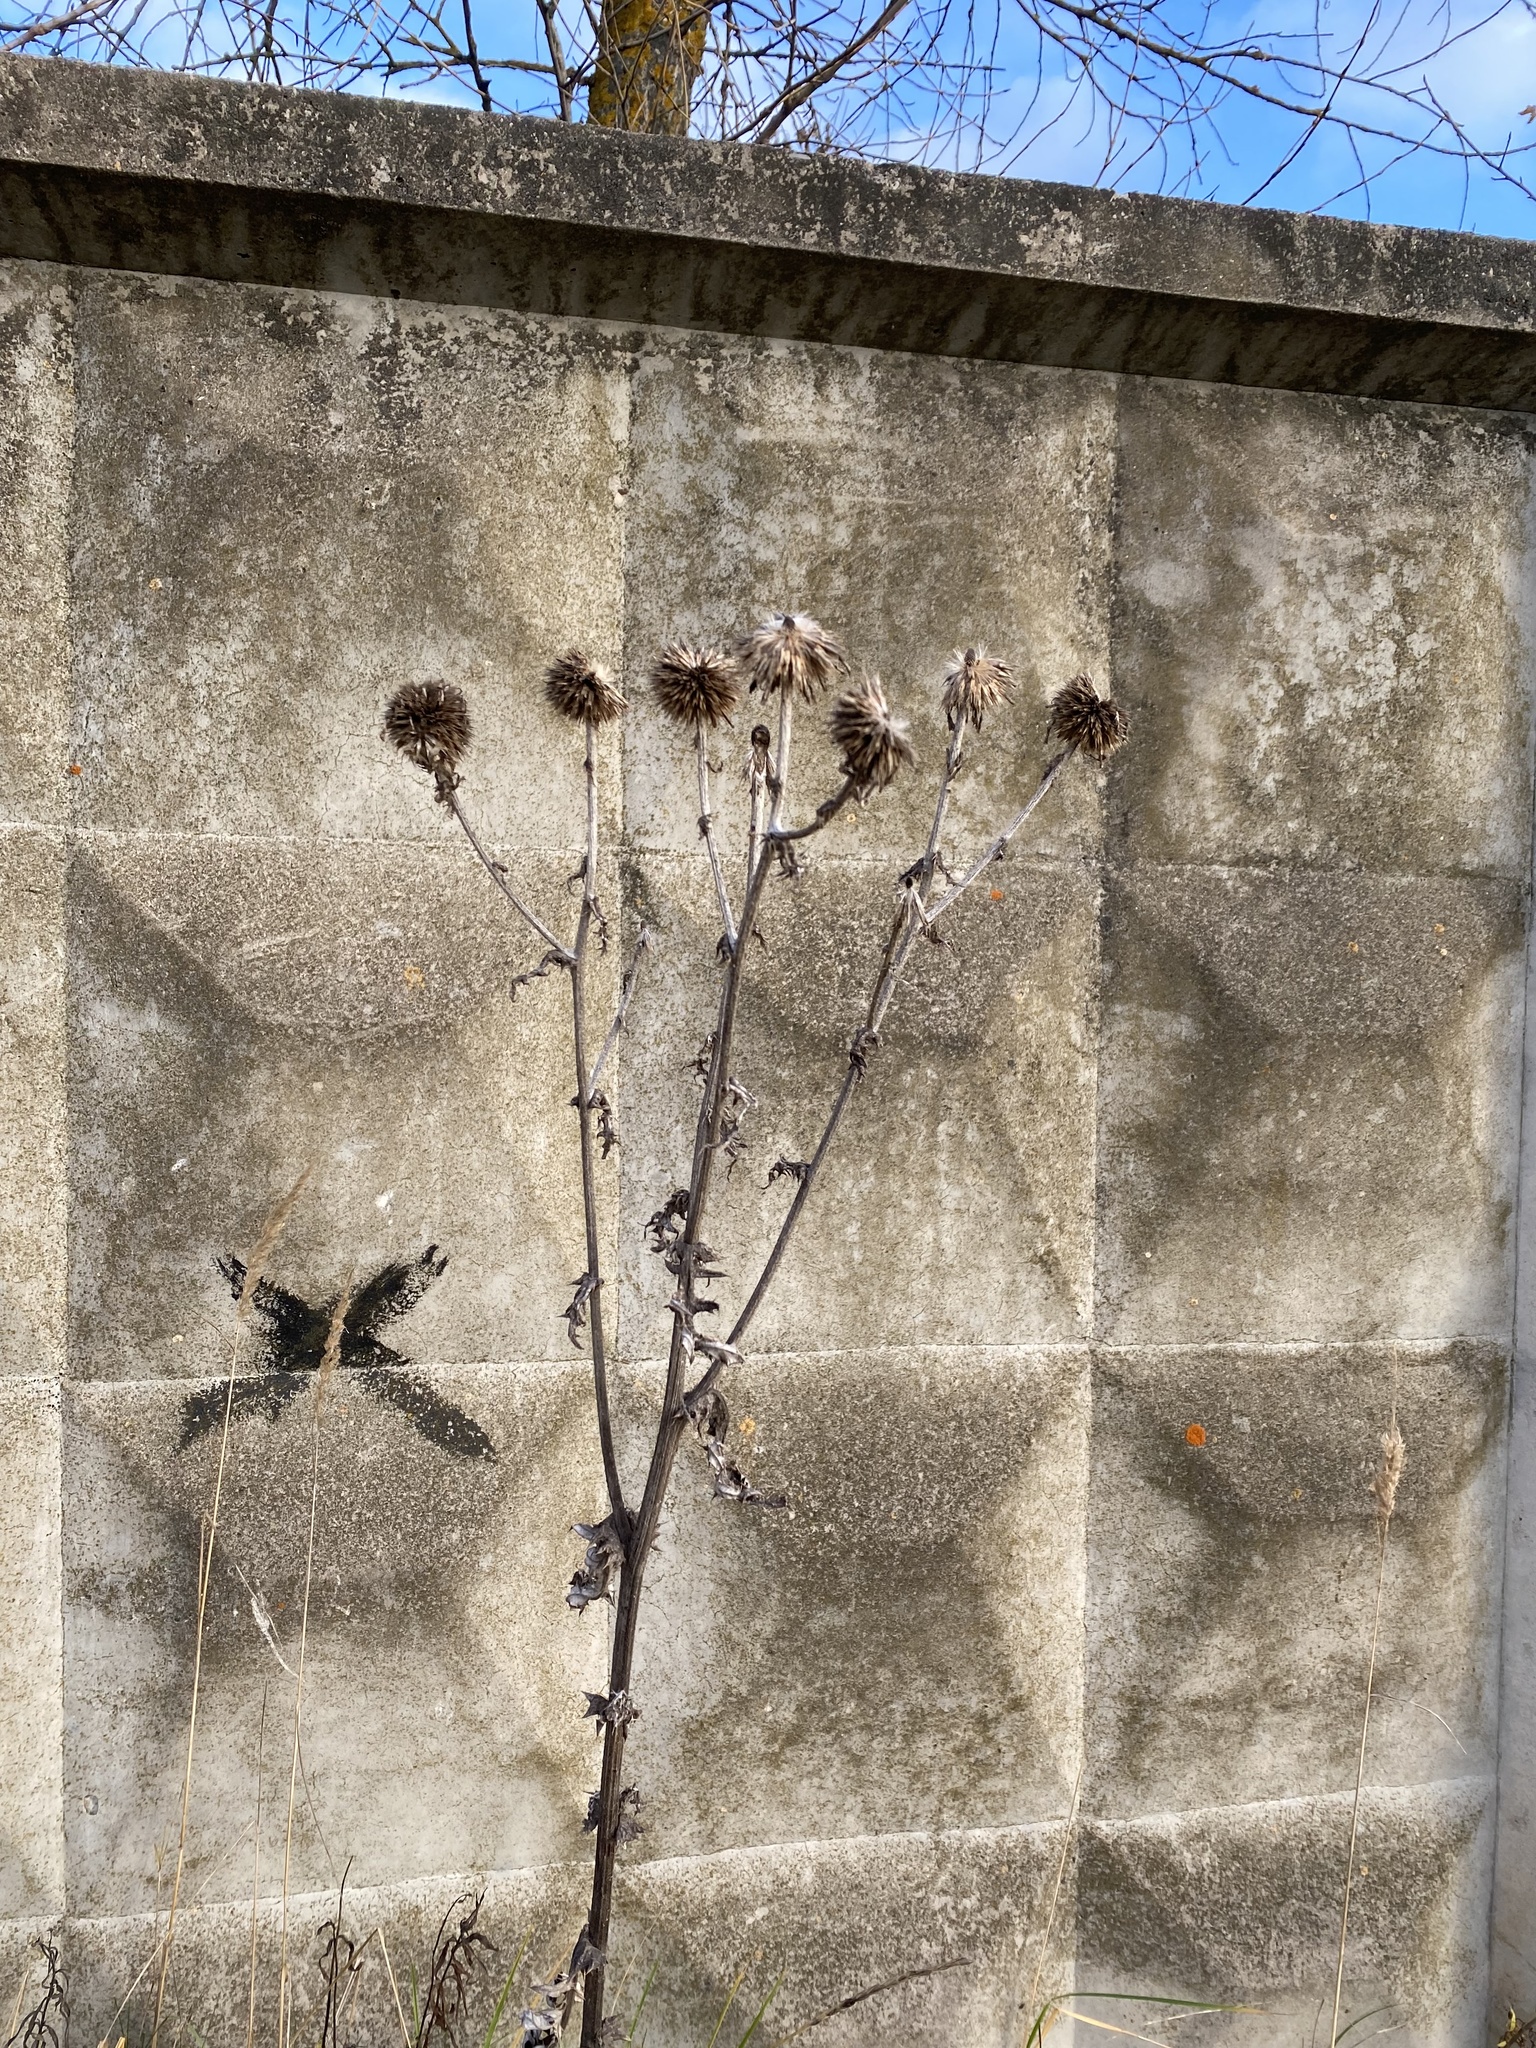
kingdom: Plantae
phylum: Tracheophyta
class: Magnoliopsida
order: Asterales
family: Asteraceae
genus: Echinops
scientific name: Echinops sphaerocephalus
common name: Glandular globe-thistle
